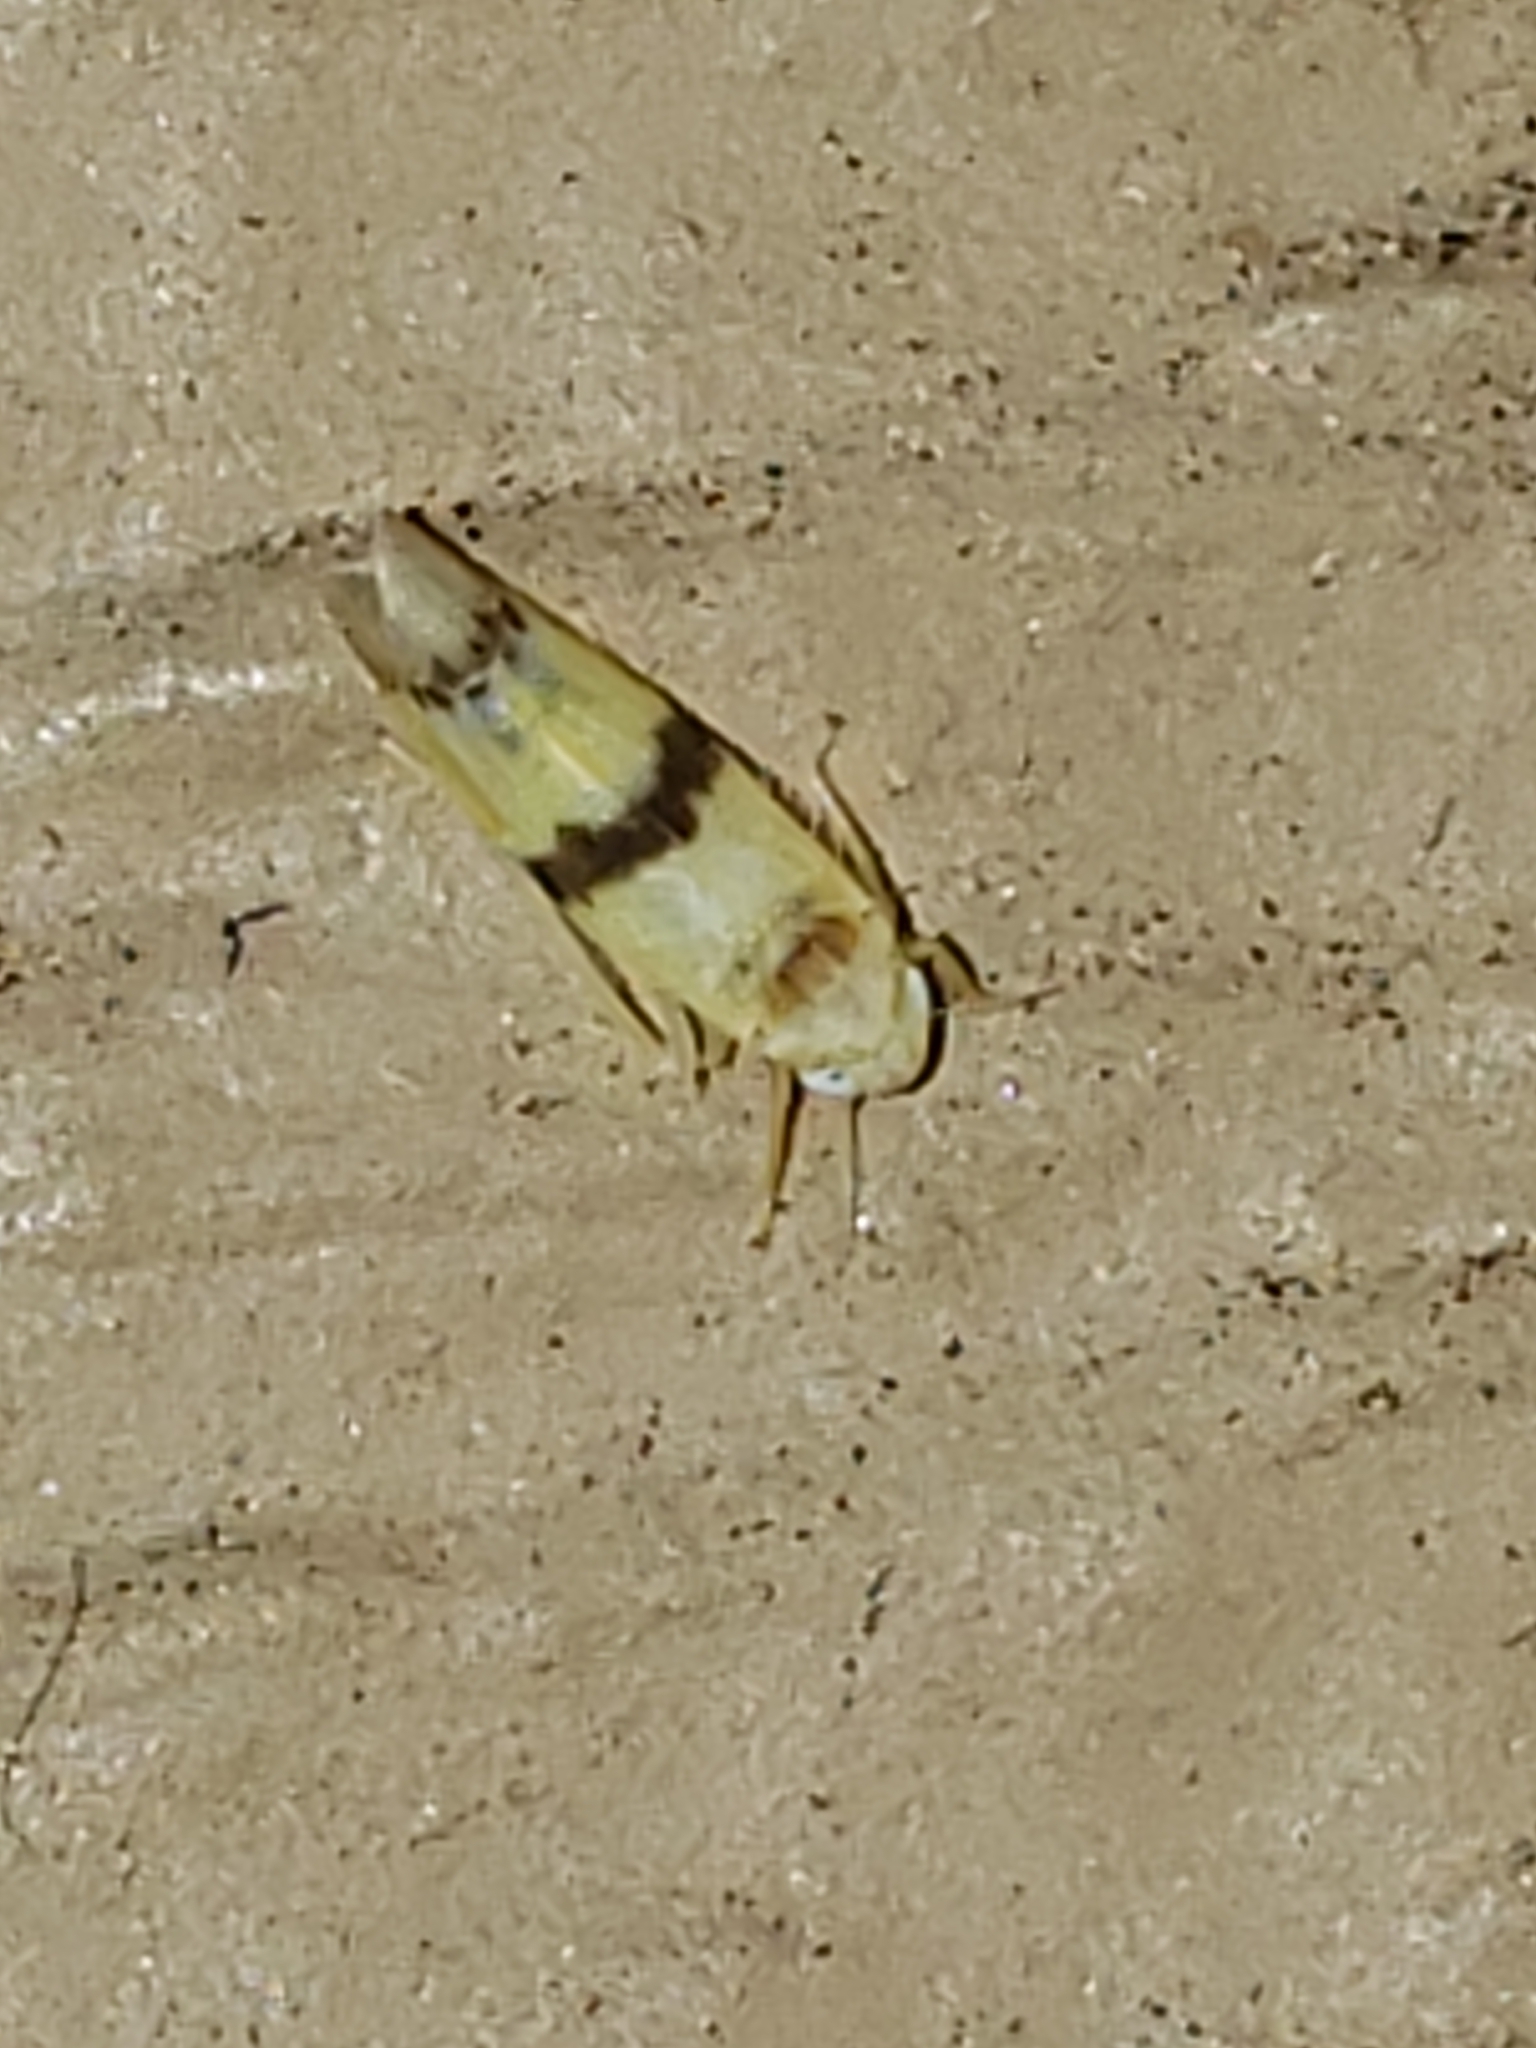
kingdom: Animalia
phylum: Arthropoda
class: Insecta
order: Hemiptera
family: Cicadellidae
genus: Empoa
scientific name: Empoa apicata
